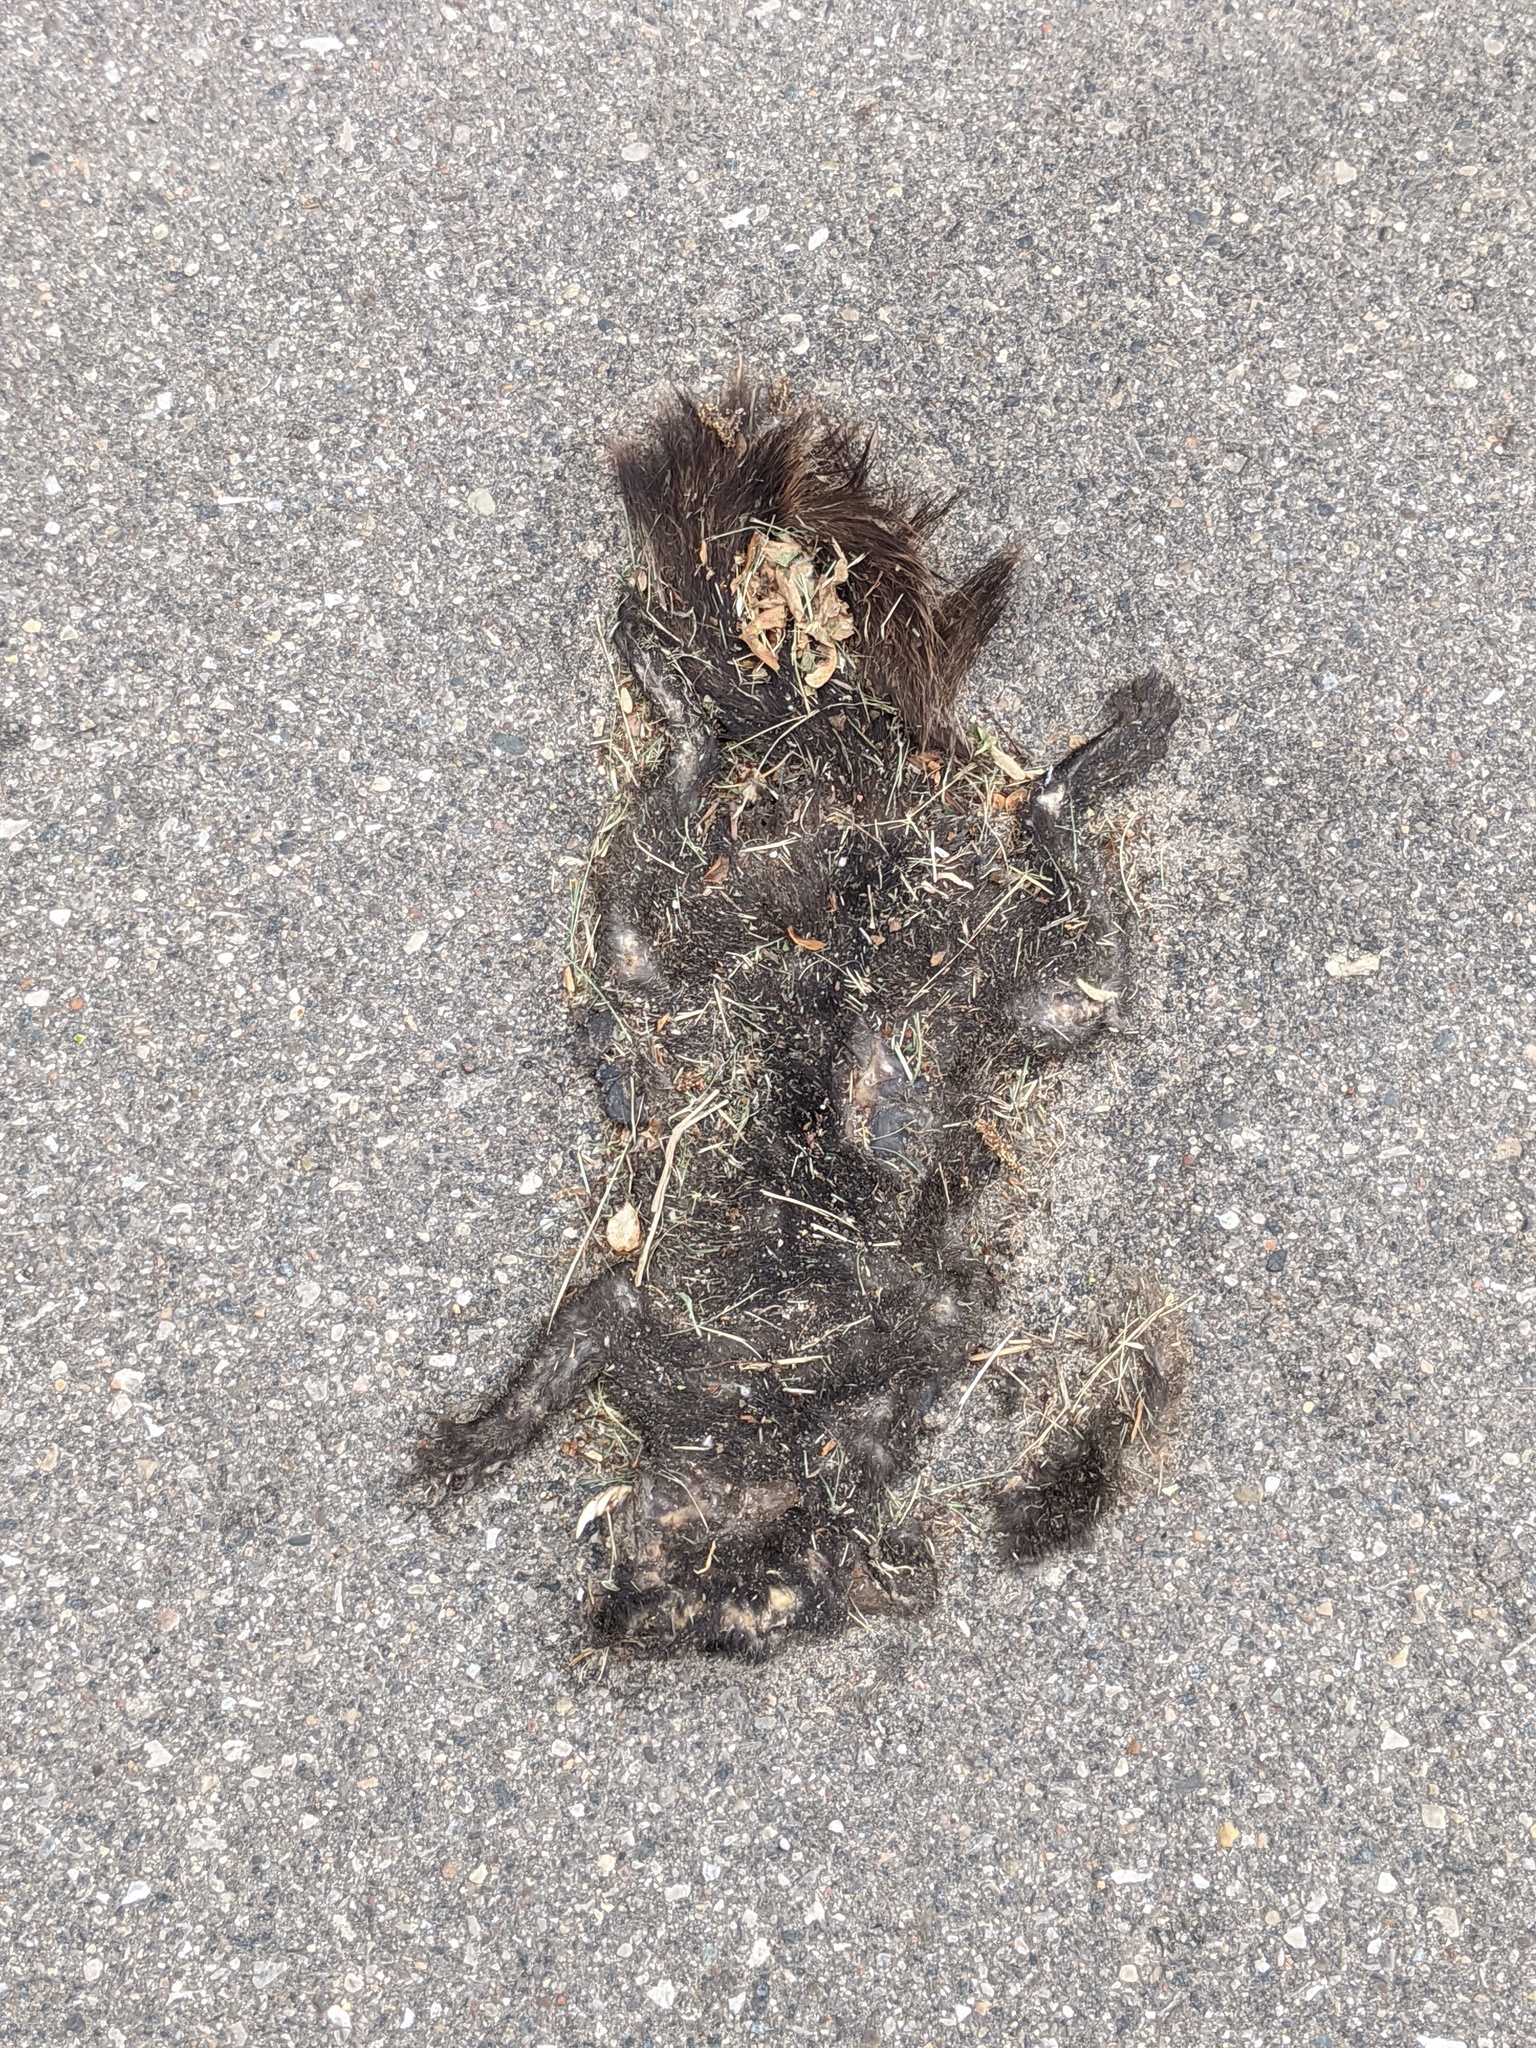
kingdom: Animalia
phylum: Chordata
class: Mammalia
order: Rodentia
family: Sciuridae
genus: Sciurus
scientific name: Sciurus carolinensis
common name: Eastern gray squirrel
